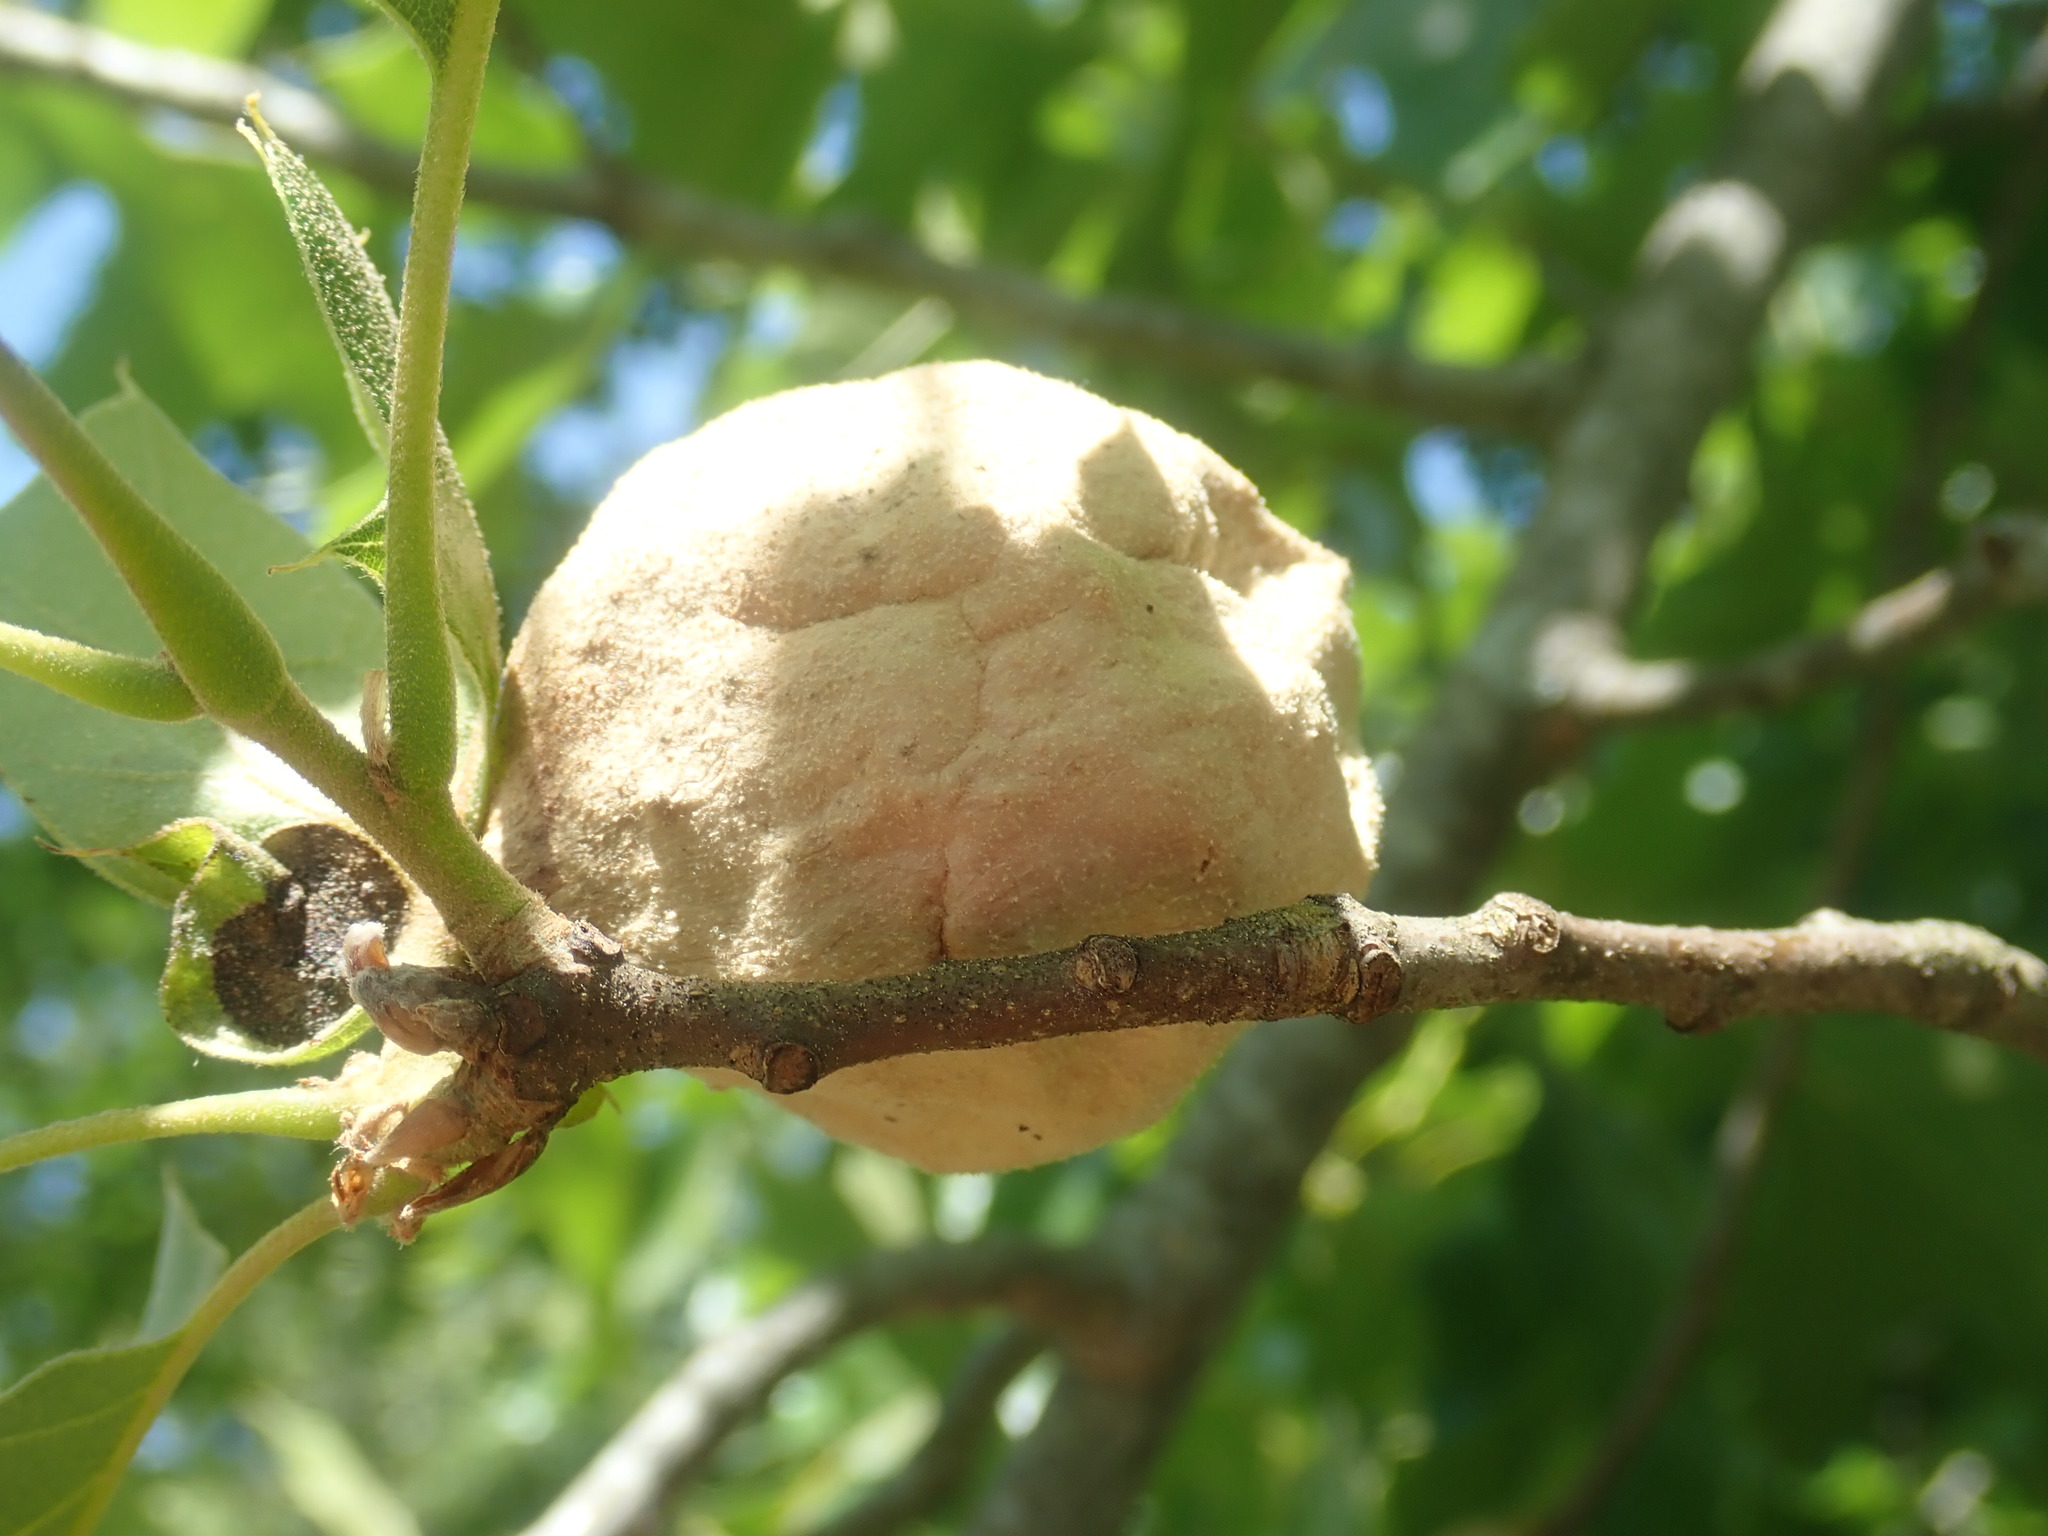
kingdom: Animalia
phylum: Arthropoda
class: Insecta
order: Hymenoptera
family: Cynipidae
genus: Amphibolips
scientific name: Amphibolips
